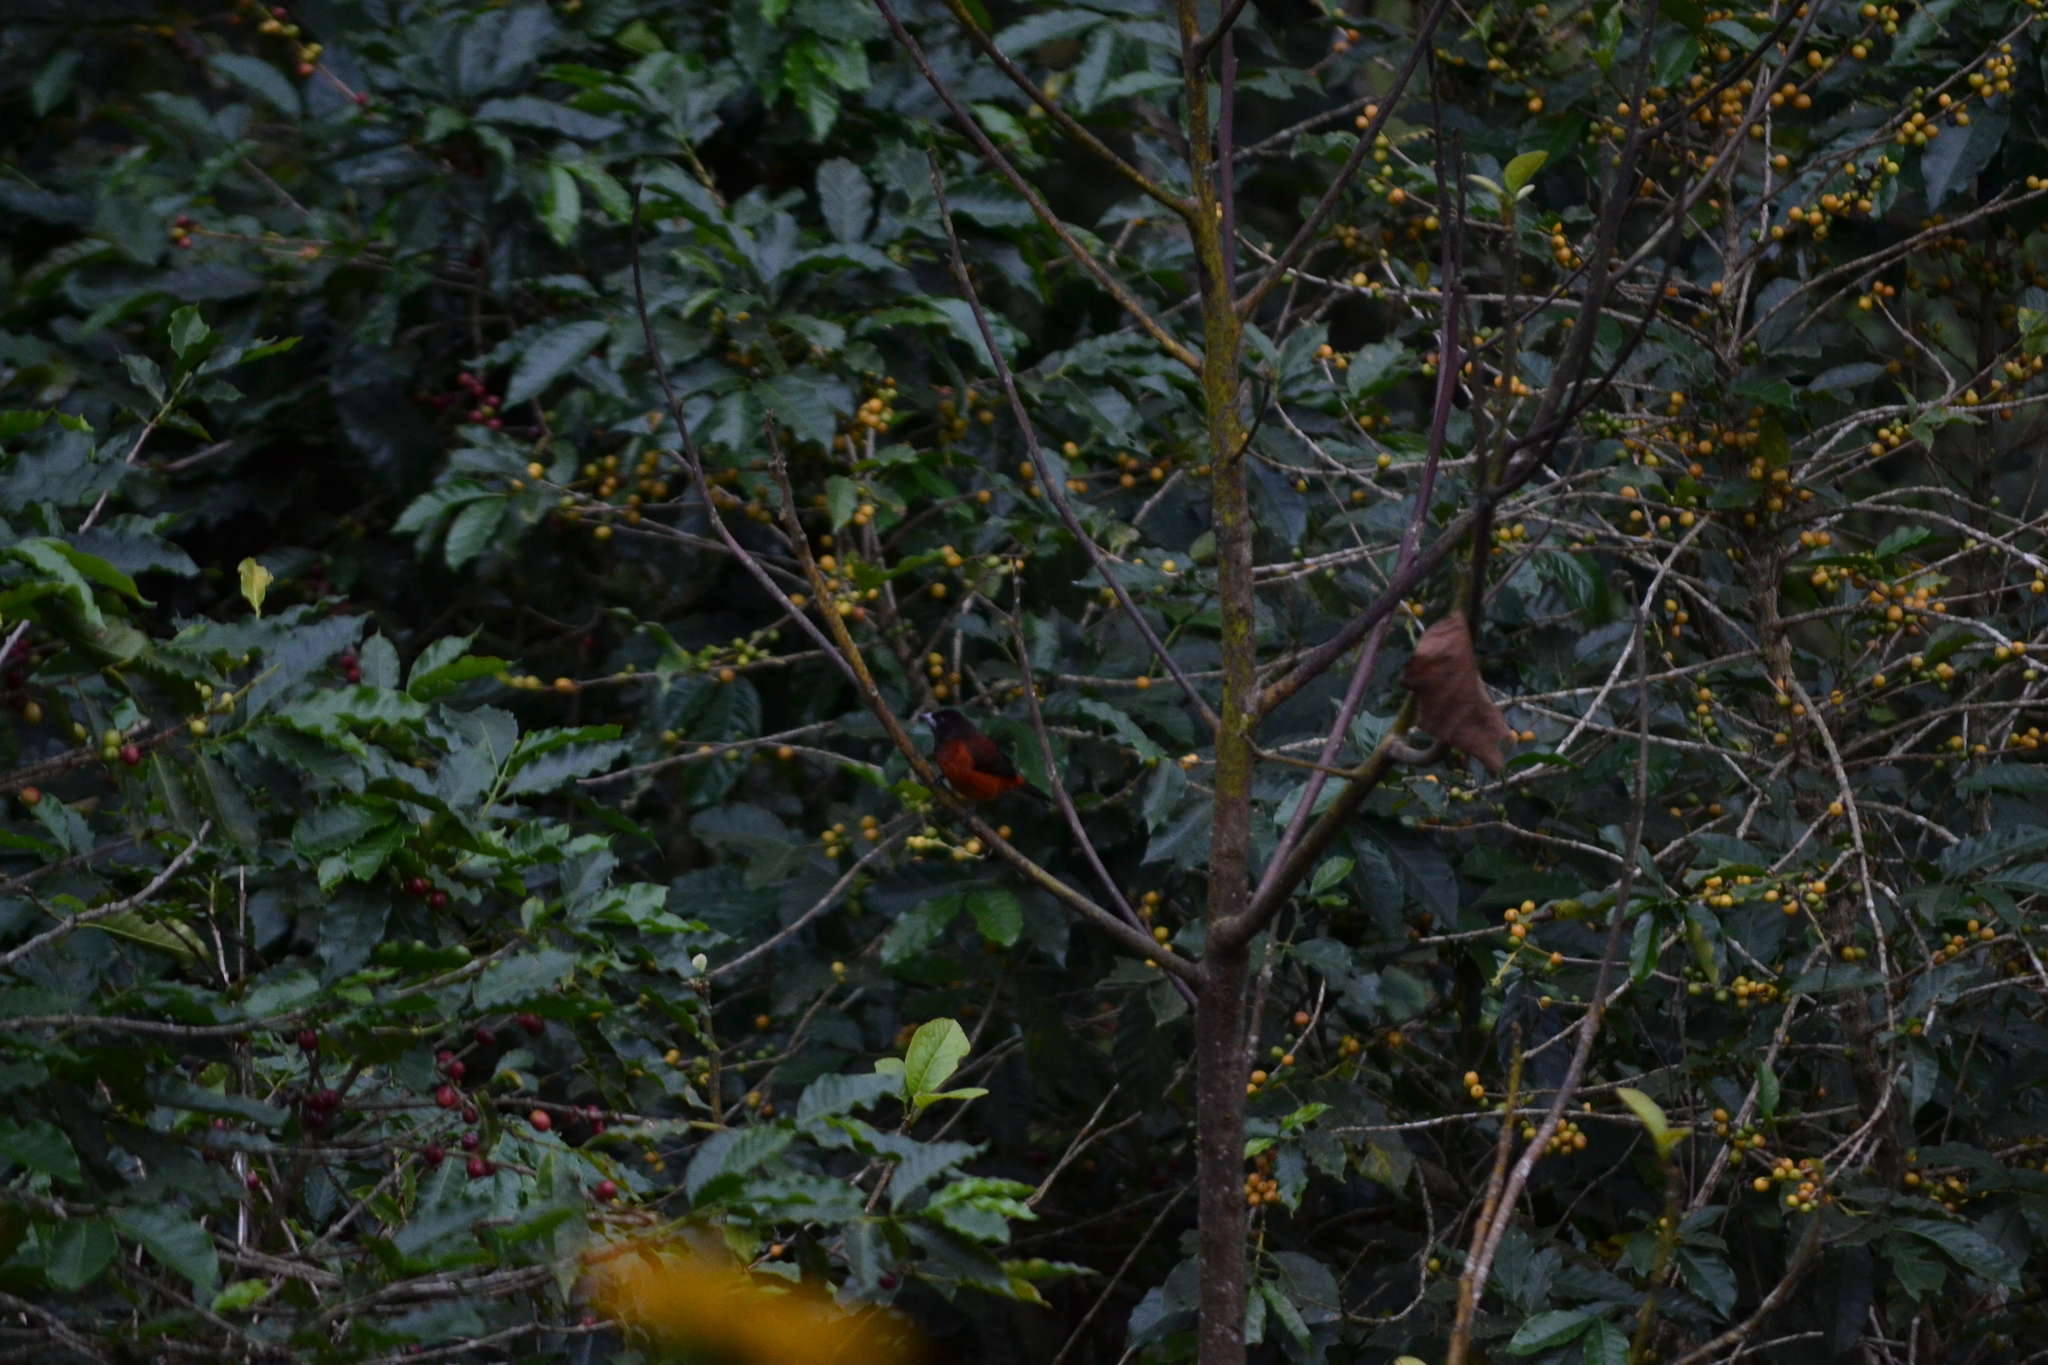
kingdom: Animalia
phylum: Chordata
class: Aves
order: Passeriformes
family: Thraupidae
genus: Ramphocelus
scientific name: Ramphocelus dimidiatus
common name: Crimson-backed tanager
